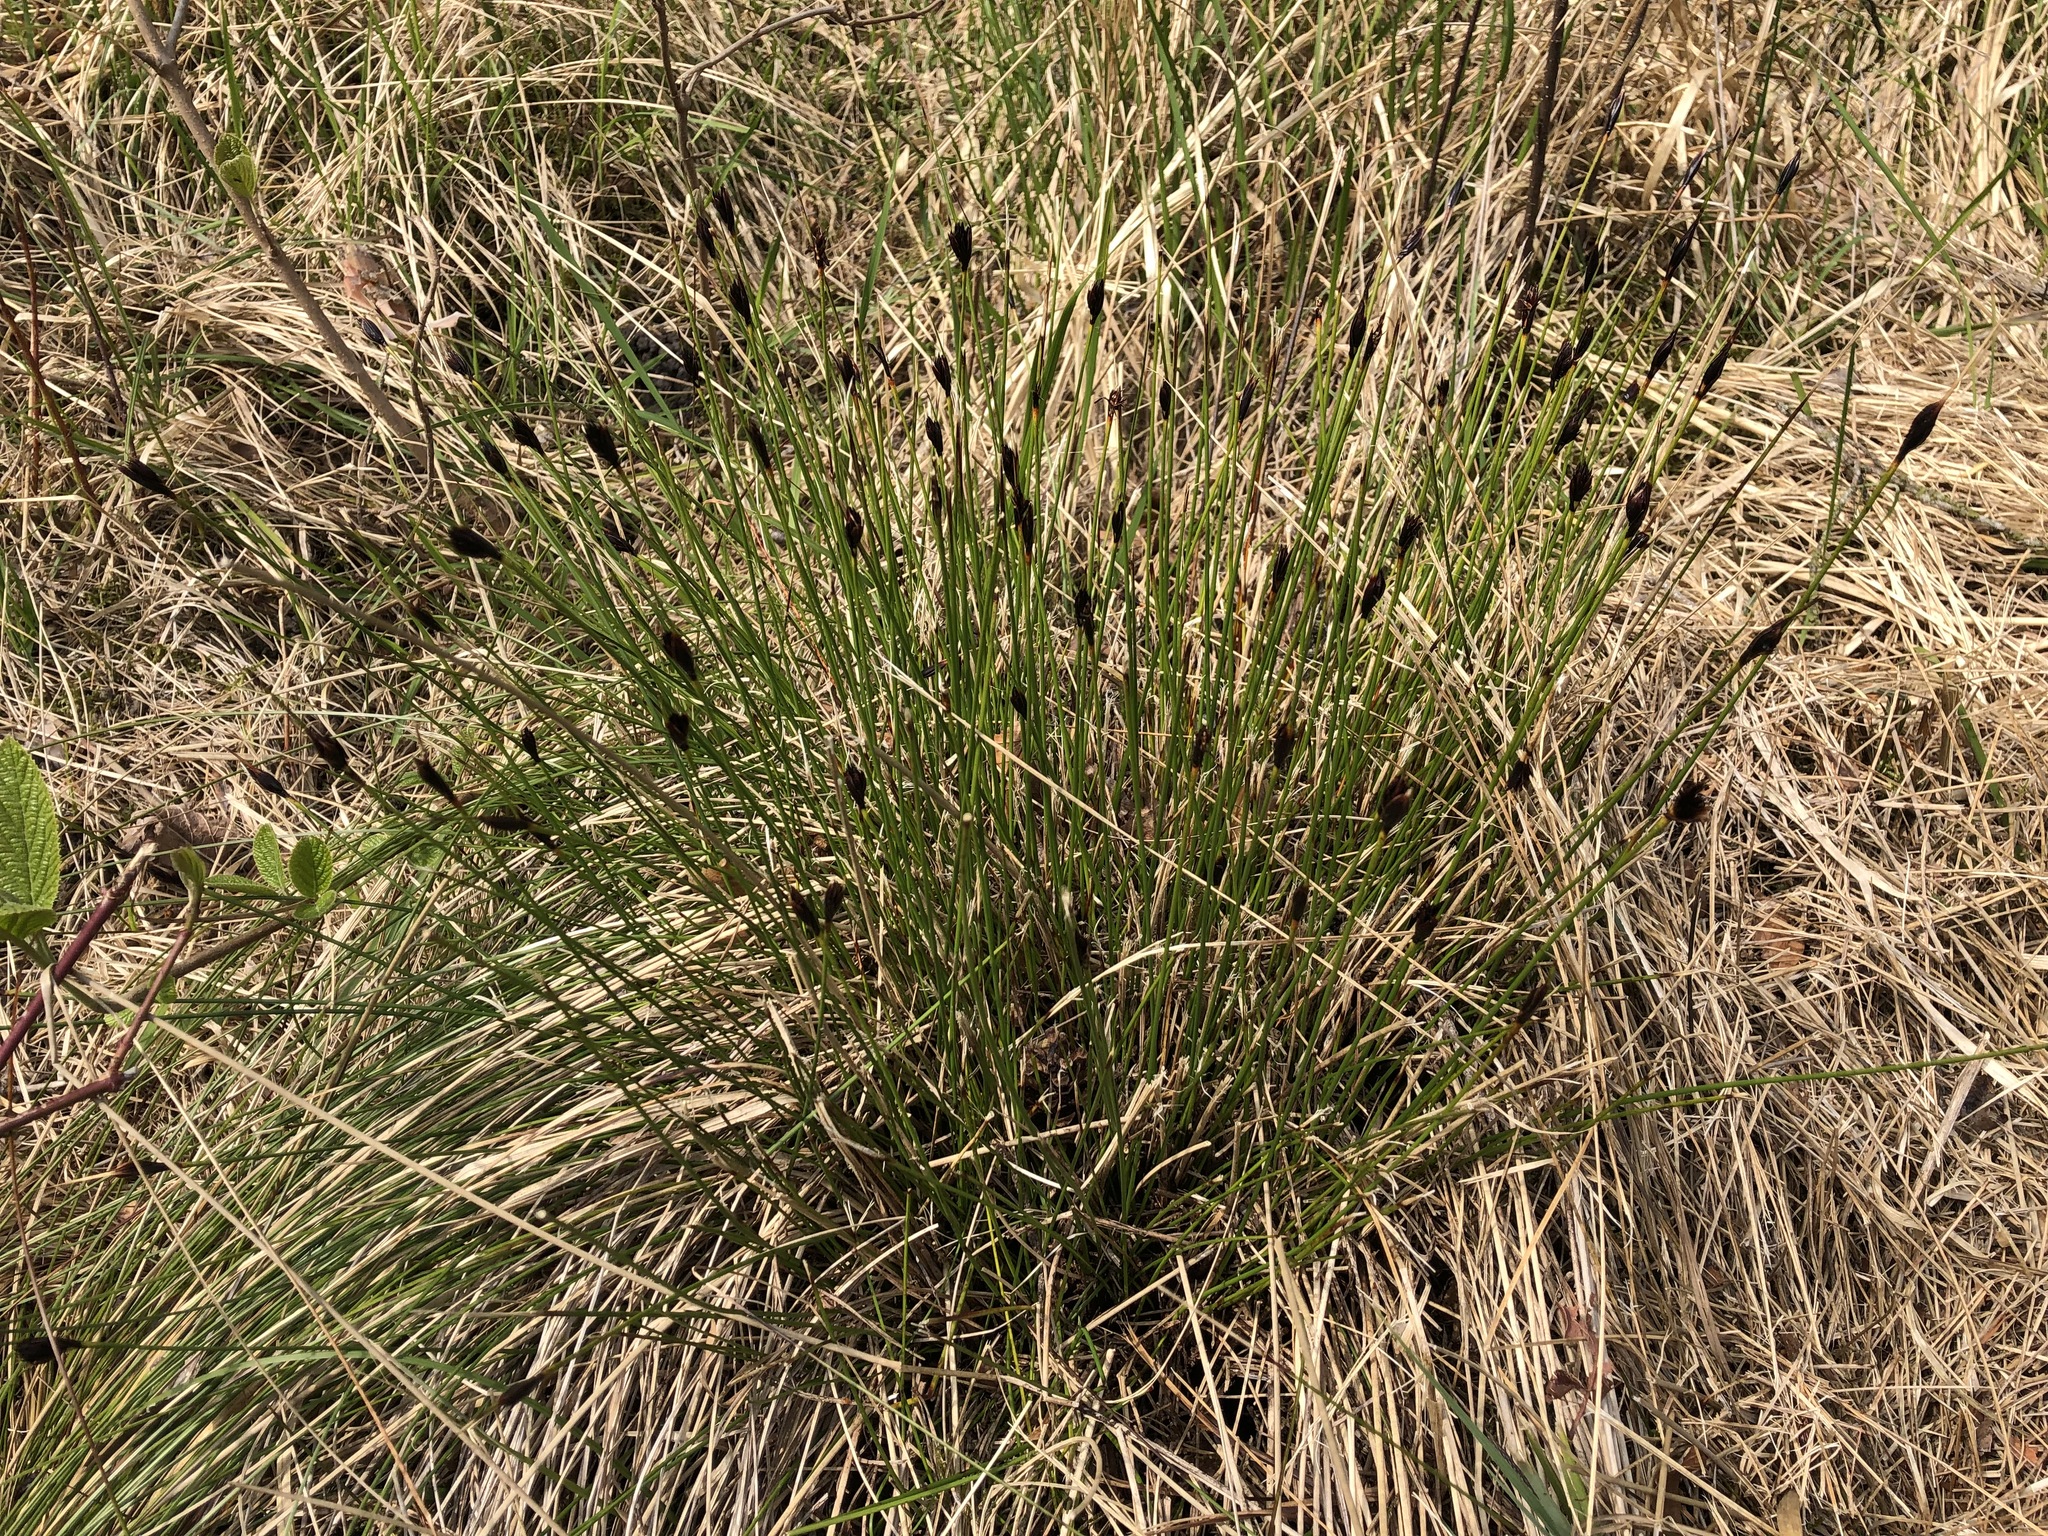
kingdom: Plantae
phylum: Tracheophyta
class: Liliopsida
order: Poales
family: Cyperaceae
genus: Schoenus
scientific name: Schoenus nigricans
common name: Black bog-rush
